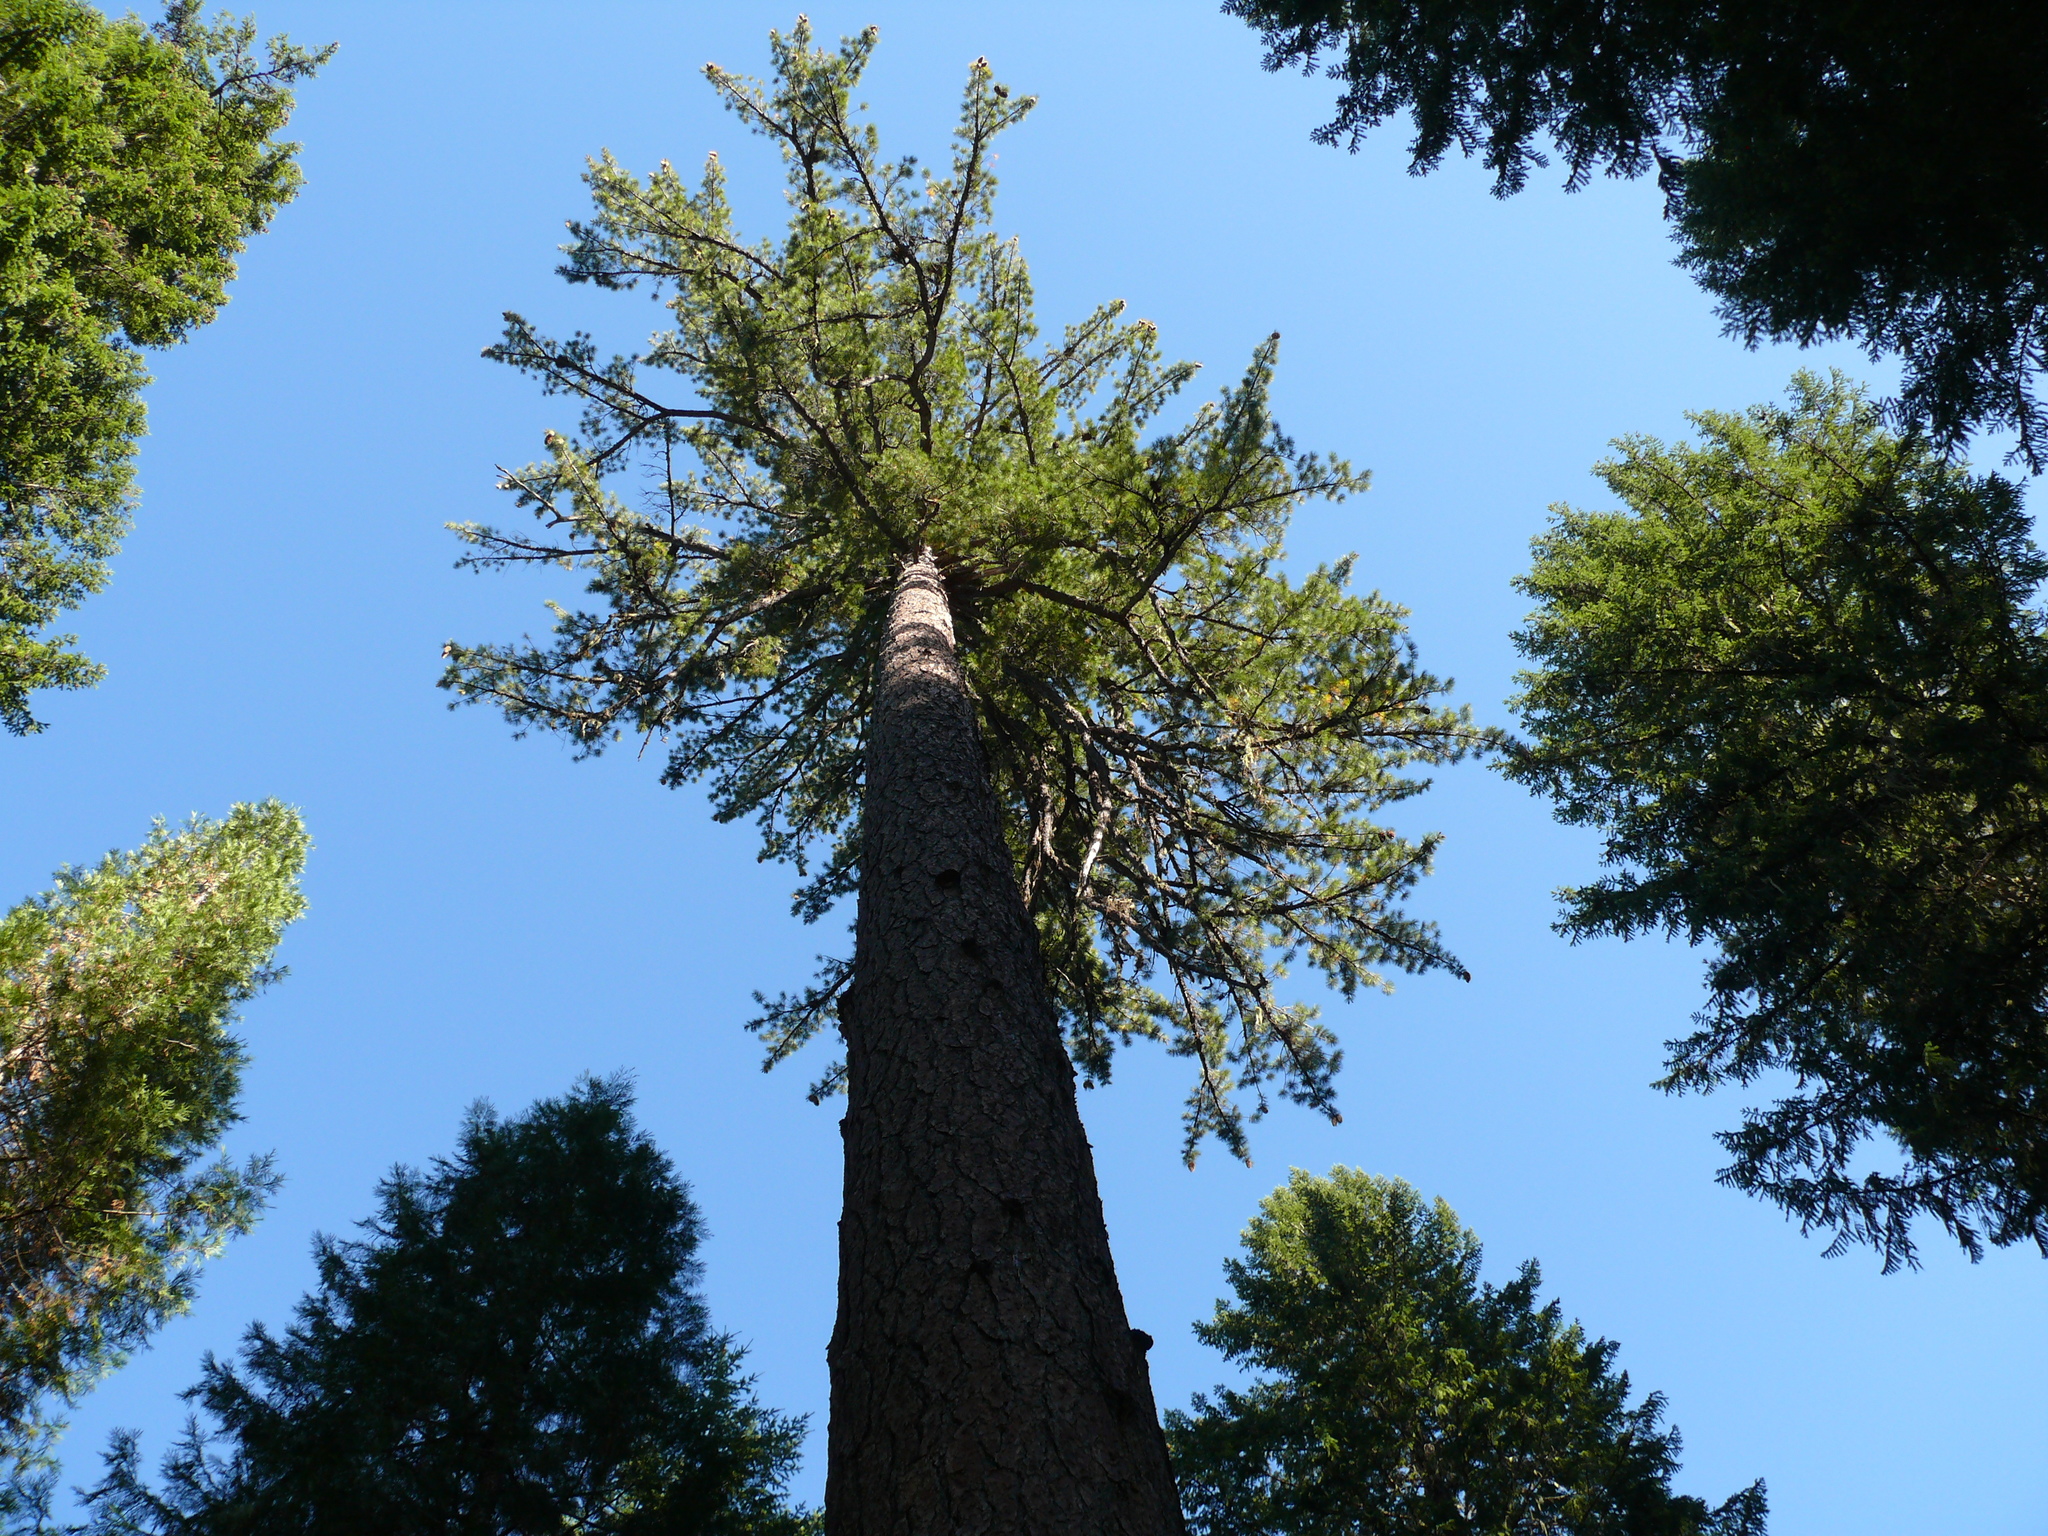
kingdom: Plantae
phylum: Tracheophyta
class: Pinopsida
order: Pinales
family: Pinaceae
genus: Pinus
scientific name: Pinus lambertiana
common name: Sugar pine
